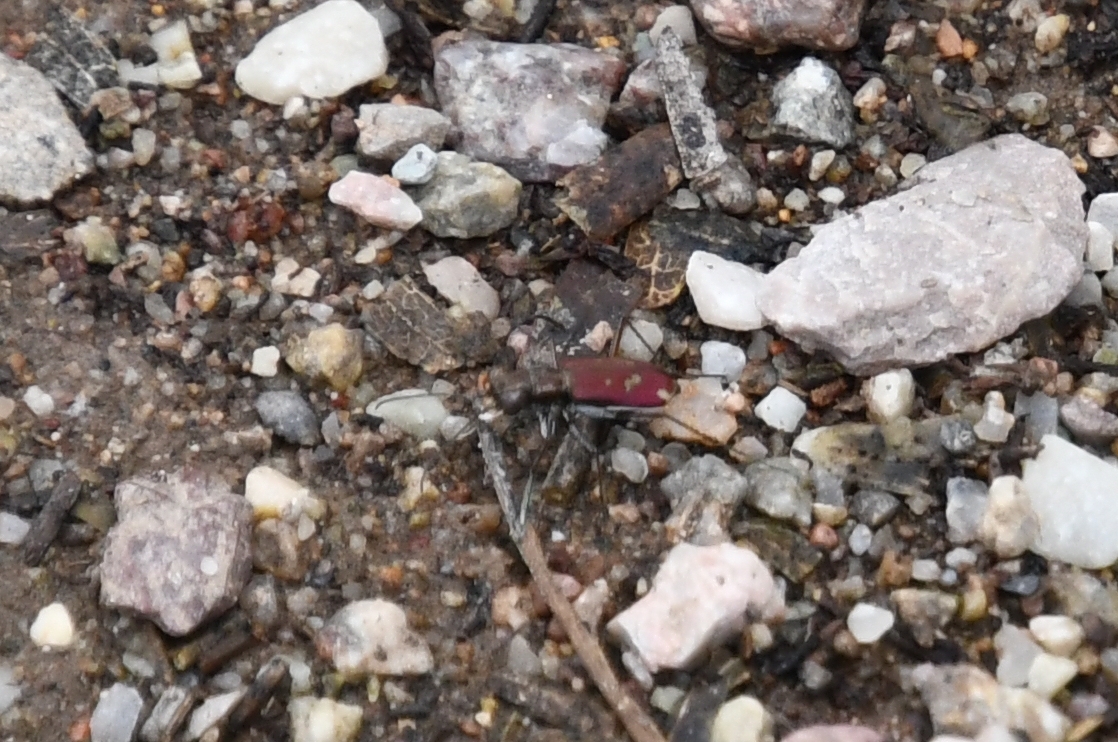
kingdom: Animalia
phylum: Arthropoda
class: Insecta
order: Coleoptera
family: Carabidae
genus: Brasiella
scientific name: Brasiella wickhami
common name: Sonoran tiger beetle
